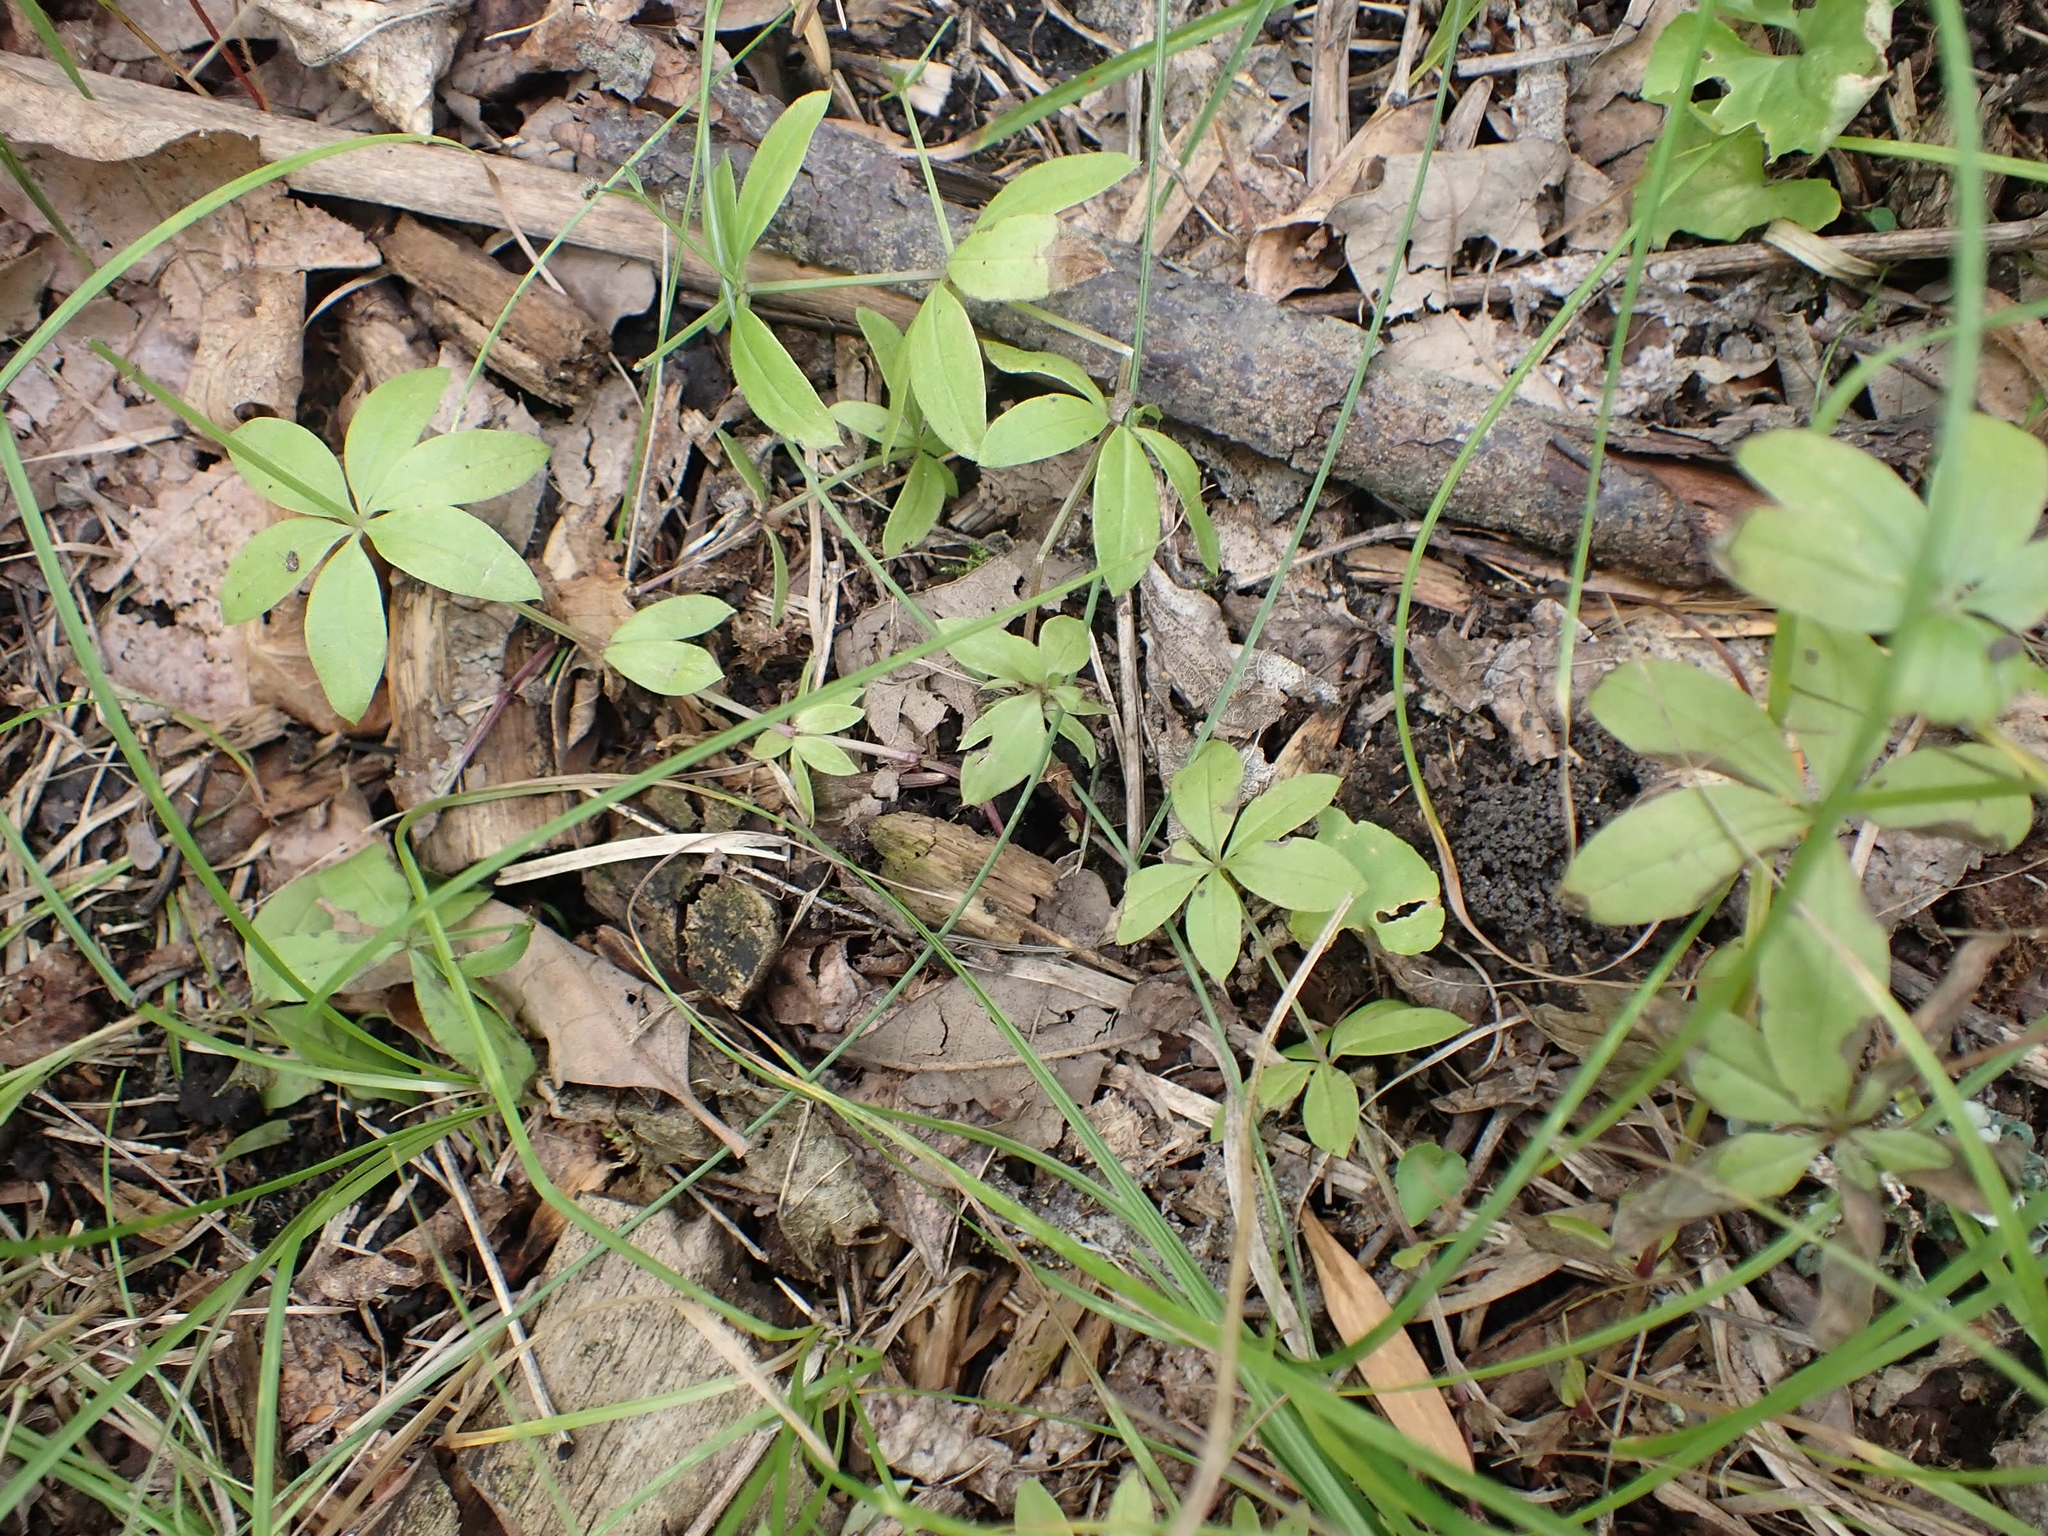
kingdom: Plantae
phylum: Tracheophyta
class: Magnoliopsida
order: Gentianales
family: Rubiaceae
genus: Galium
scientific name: Galium triflorum
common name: Fragrant bedstraw
